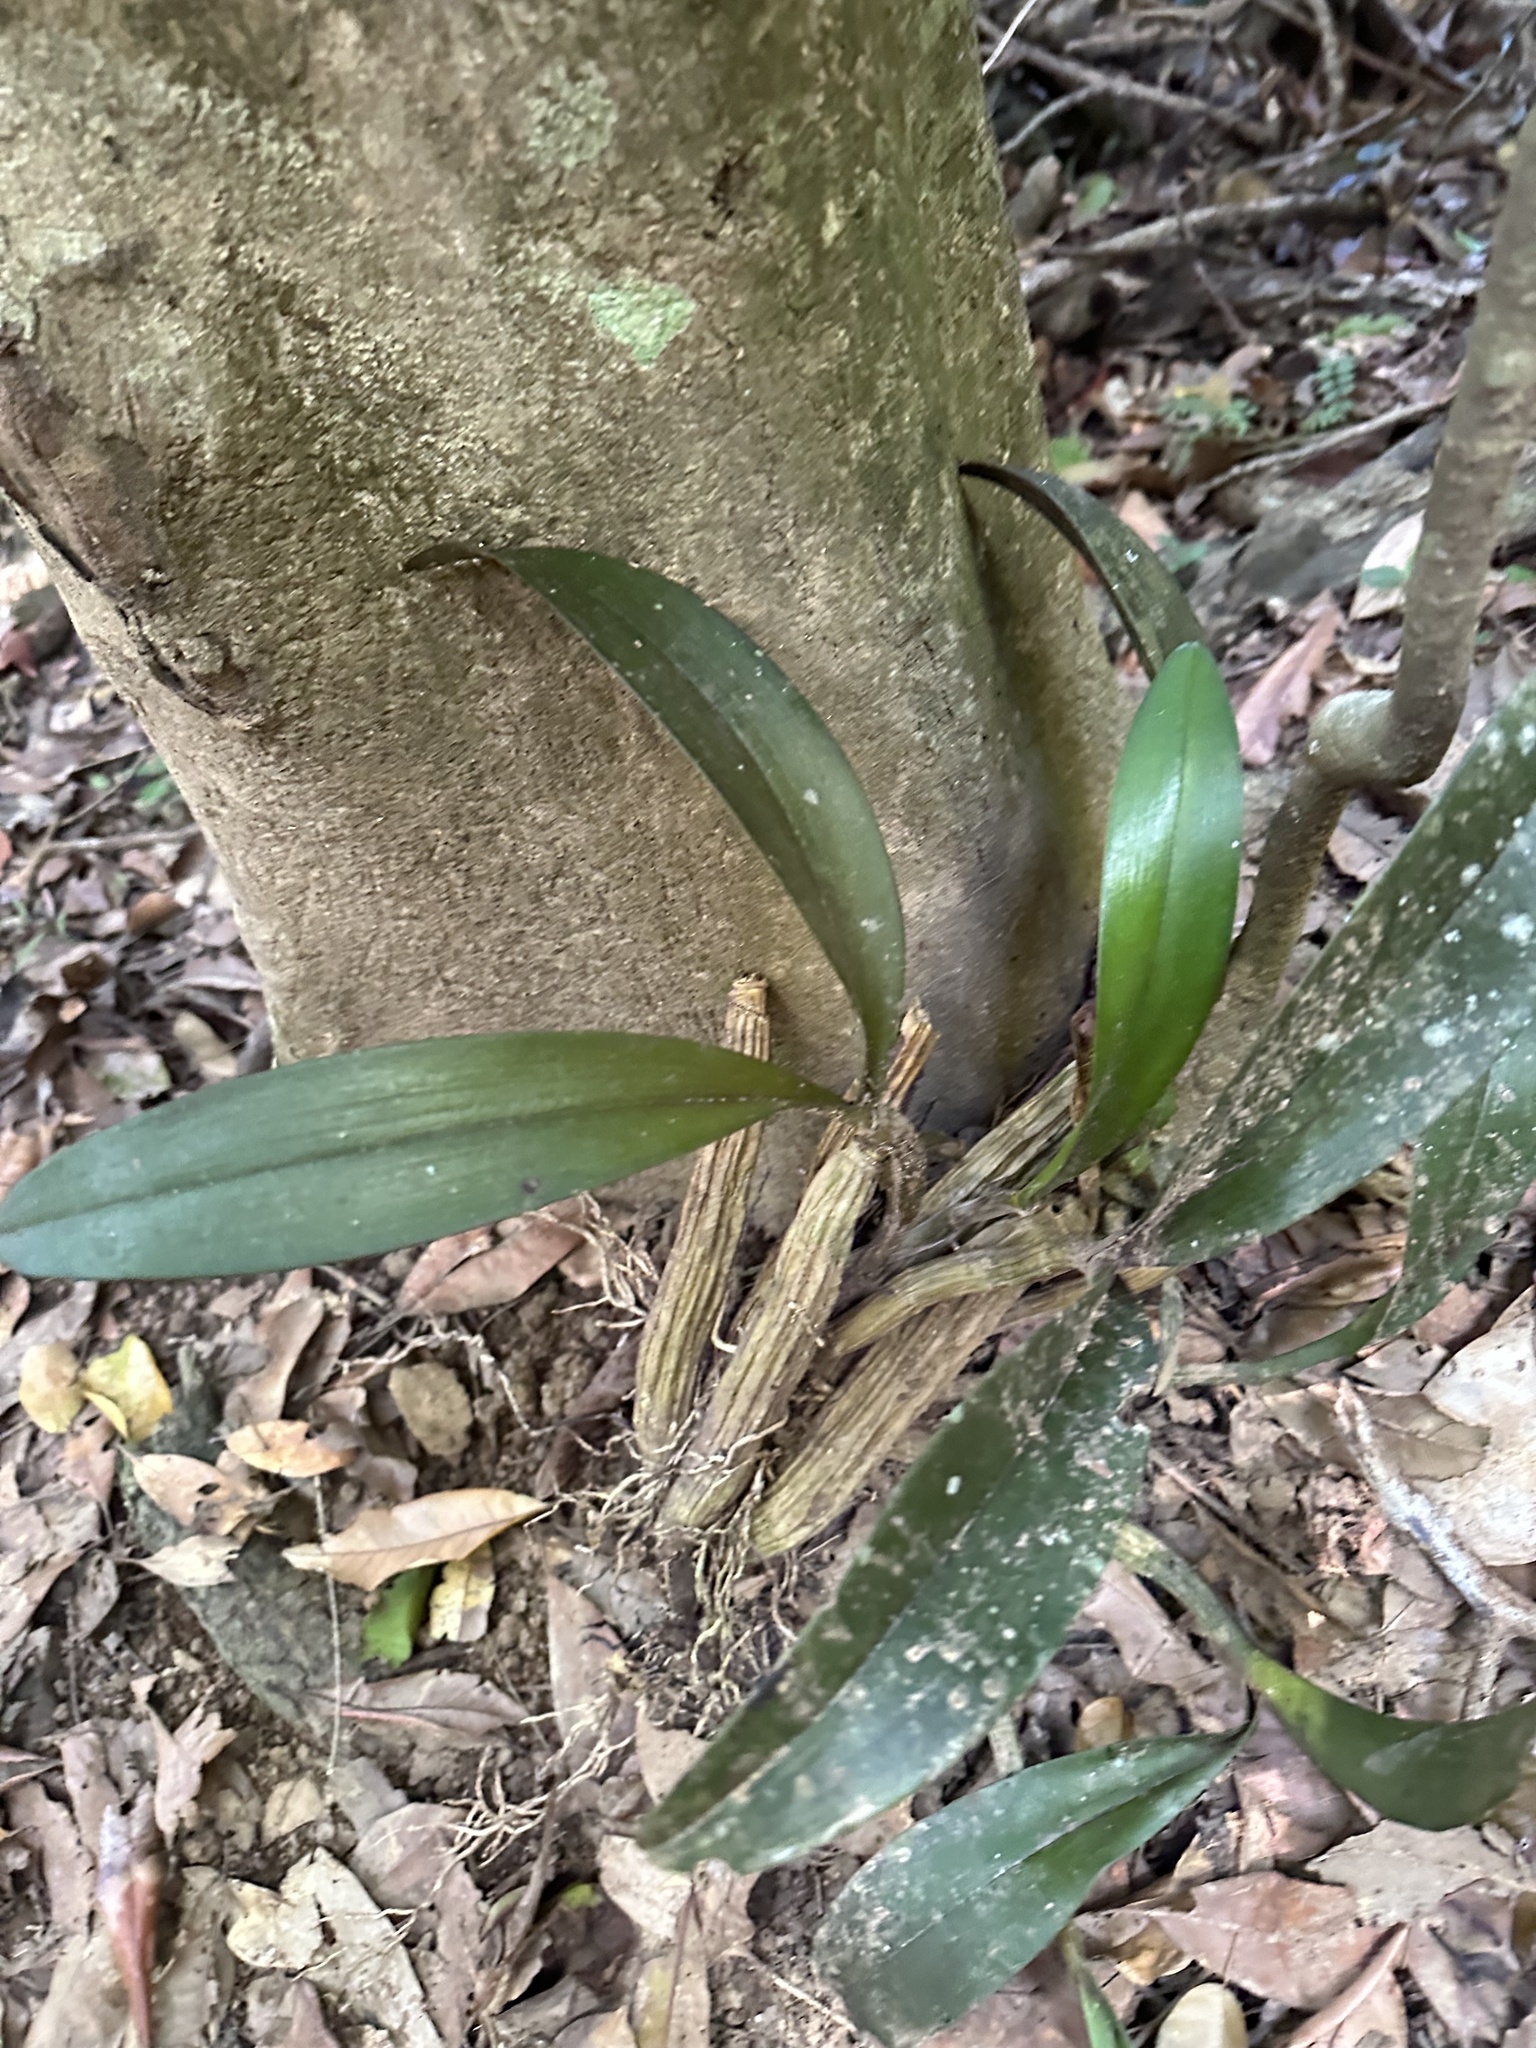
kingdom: Plantae
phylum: Tracheophyta
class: Liliopsida
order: Asparagales
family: Orchidaceae
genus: Dendrobium
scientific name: Dendrobium speciosum
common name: Rock-lily
